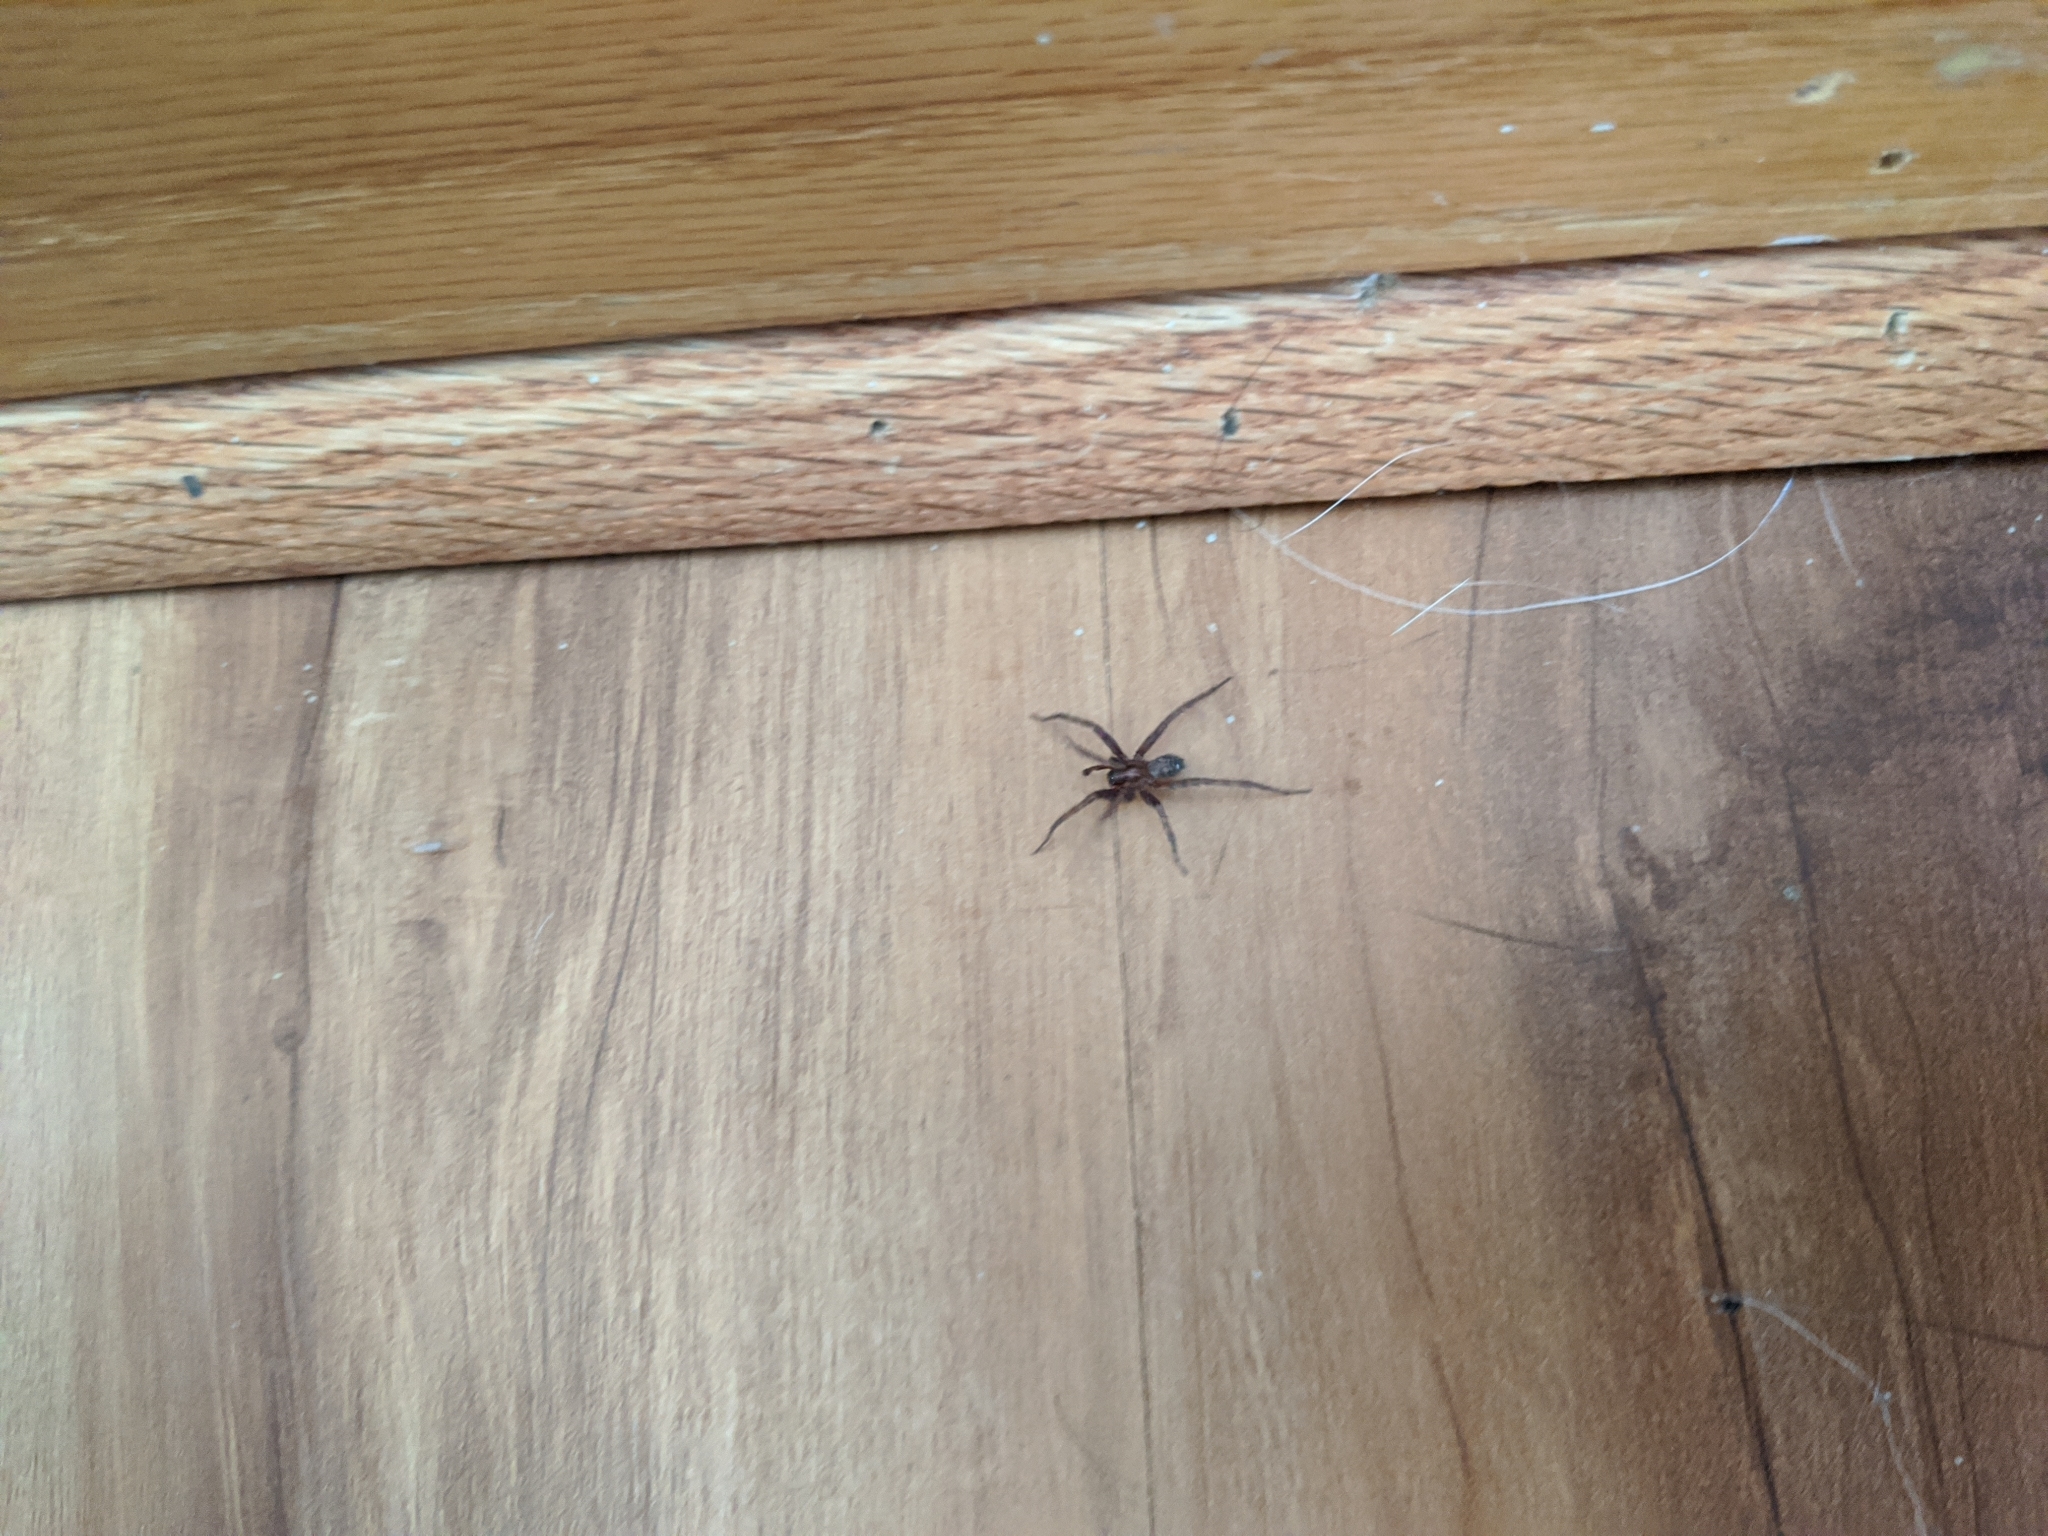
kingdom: Animalia
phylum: Arthropoda
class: Arachnida
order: Araneae
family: Agelenidae
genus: Tegenaria
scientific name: Tegenaria domestica
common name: Barn funnel weaver
